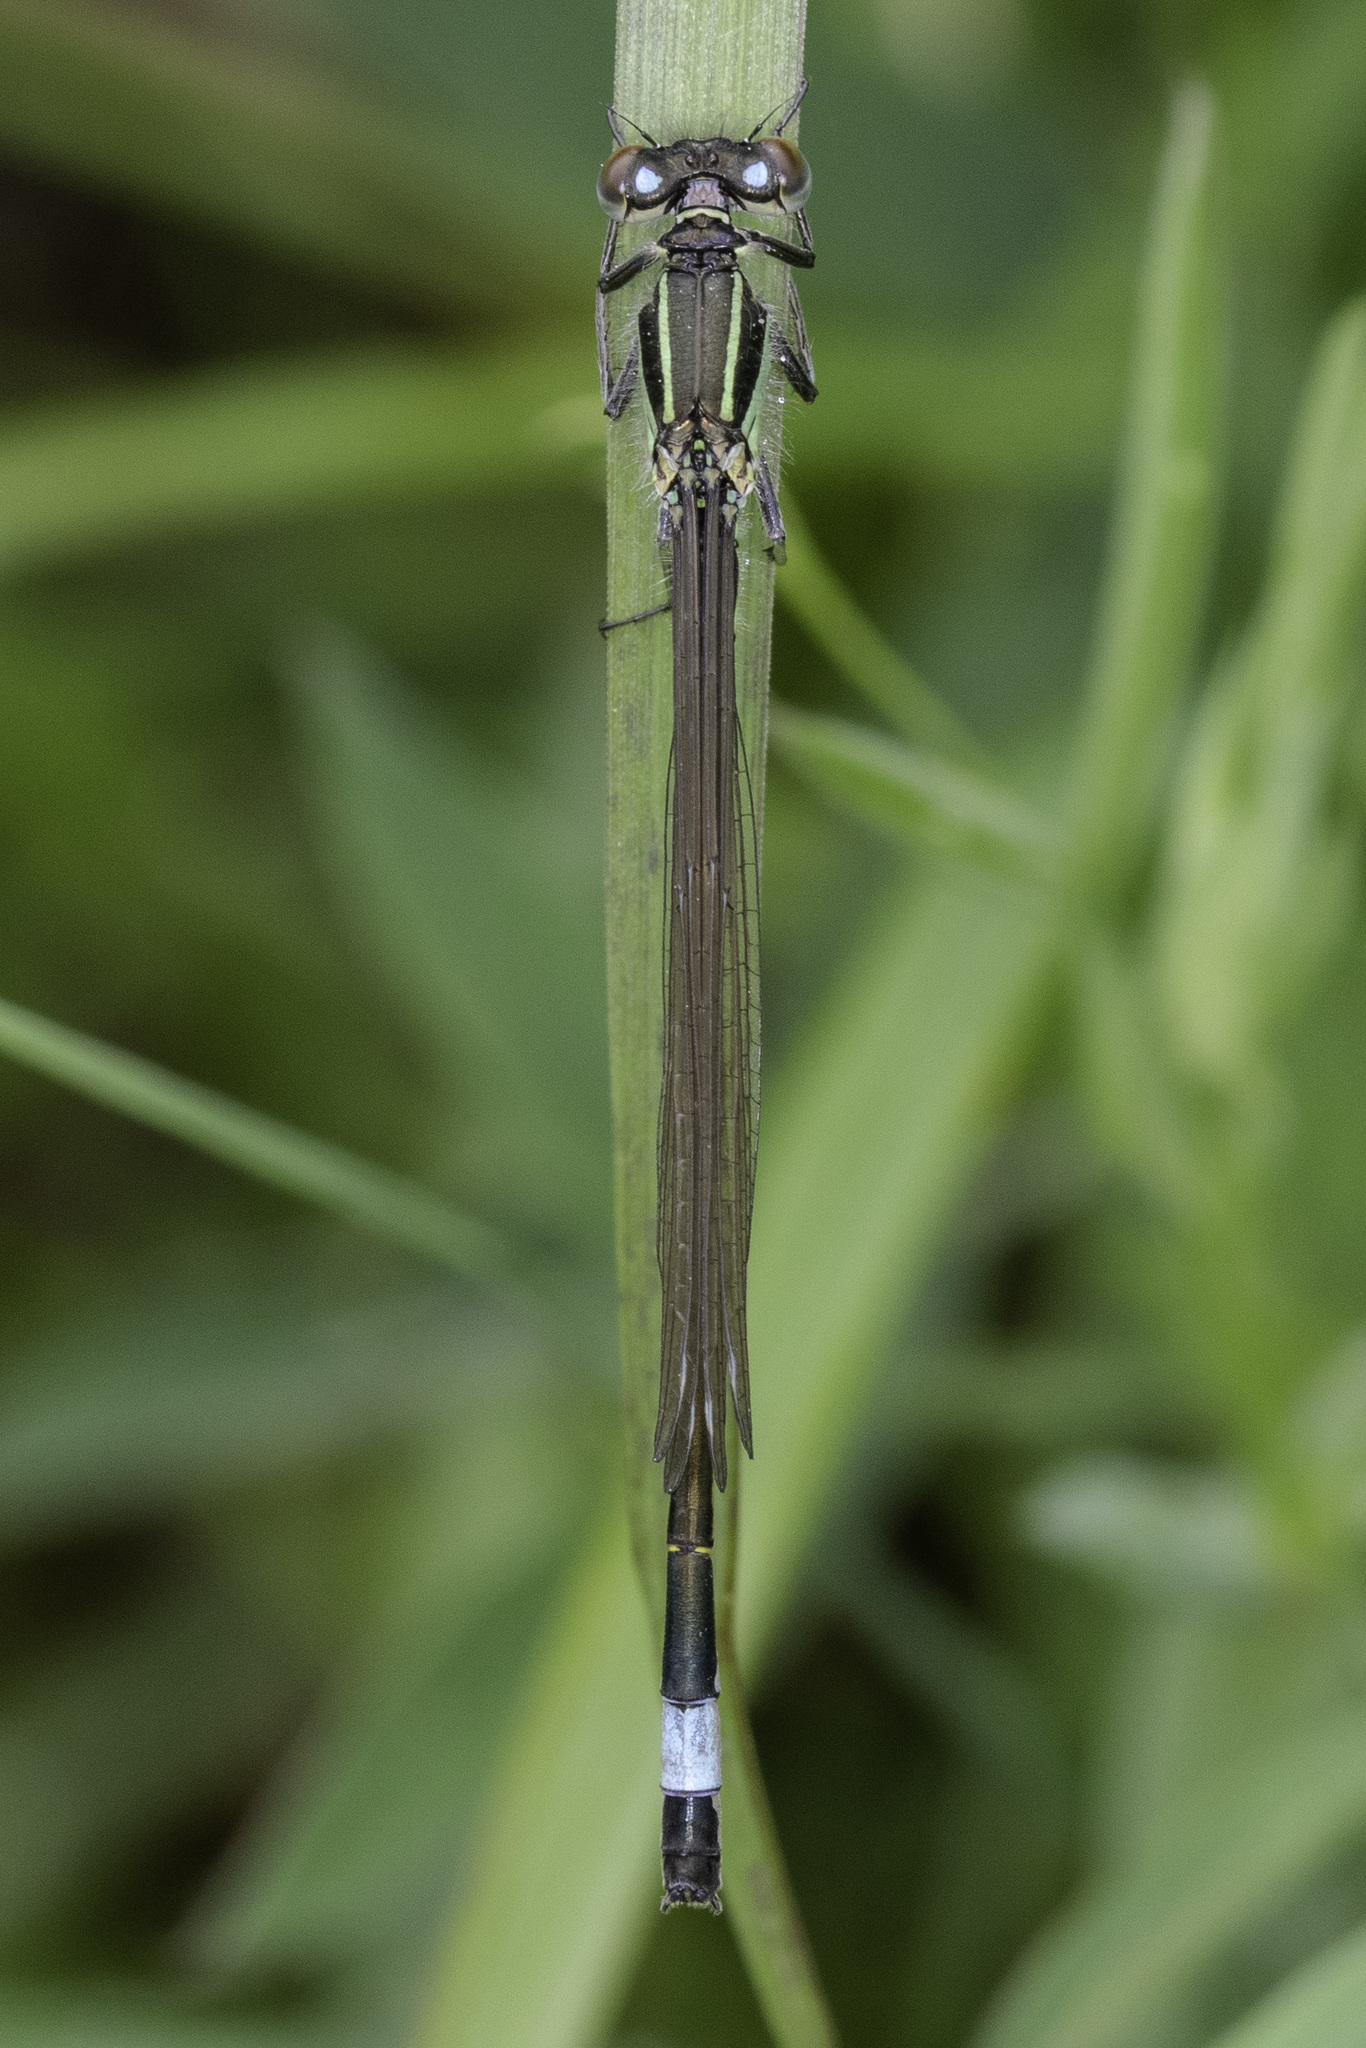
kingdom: Animalia
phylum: Arthropoda
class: Insecta
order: Odonata
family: Coenagrionidae
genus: Ischnura
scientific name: Ischnura elegans
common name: Blue-tailed damselfly
